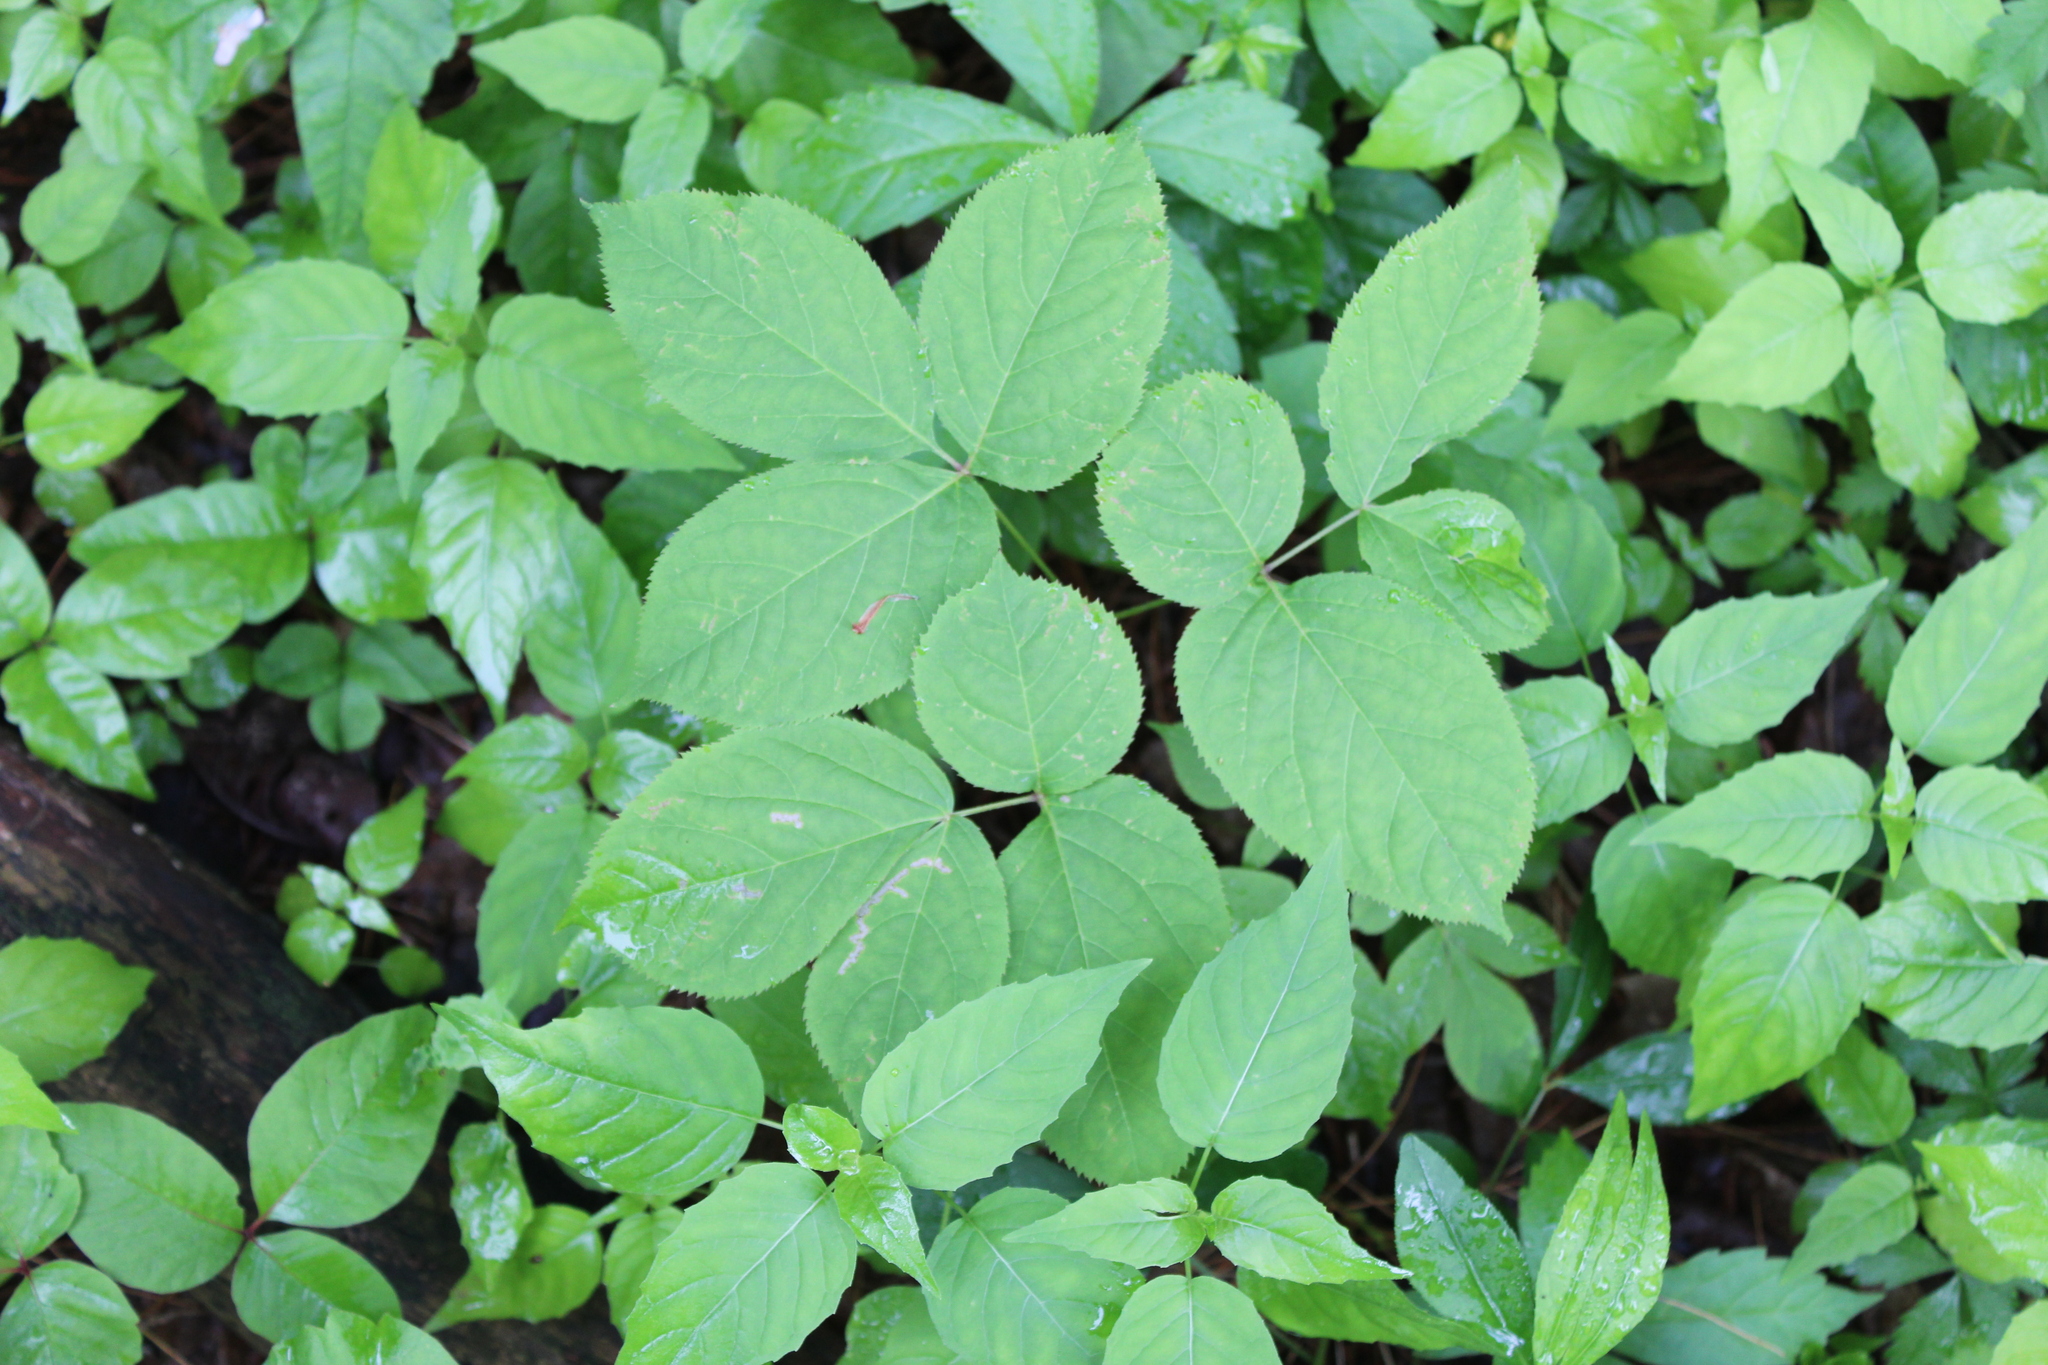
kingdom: Plantae
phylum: Tracheophyta
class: Magnoliopsida
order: Apiales
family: Araliaceae
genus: Aralia
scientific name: Aralia nudicaulis
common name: Wild sarsaparilla
